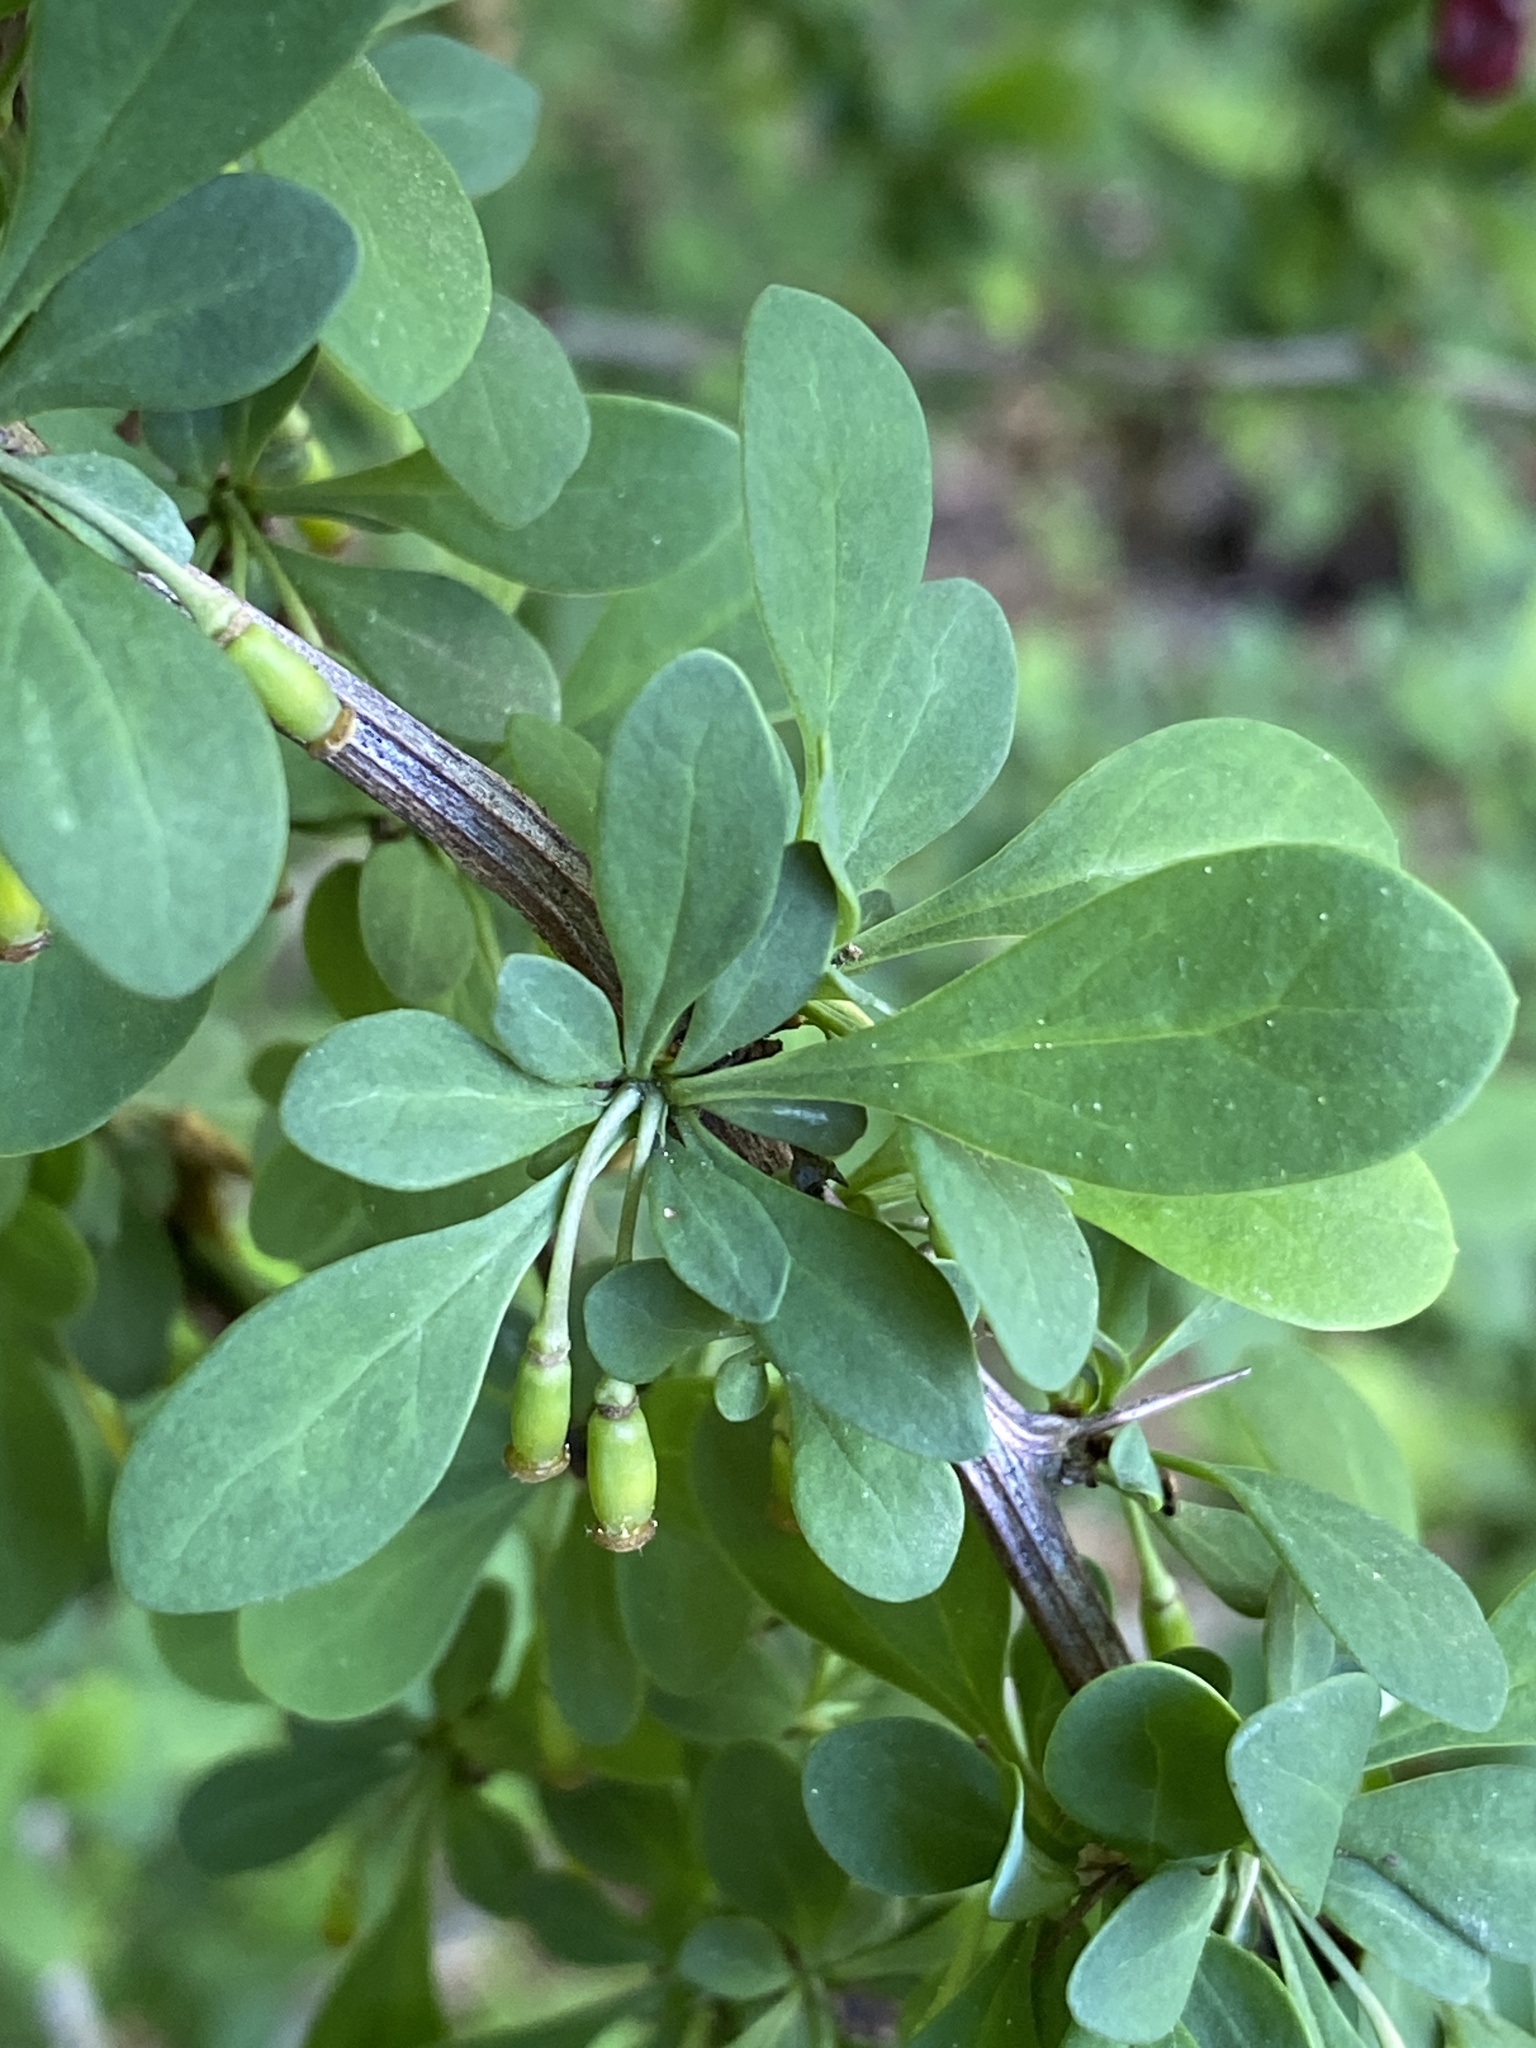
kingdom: Plantae
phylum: Tracheophyta
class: Magnoliopsida
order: Ranunculales
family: Berberidaceae
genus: Berberis
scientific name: Berberis thunbergii
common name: Japanese barberry
